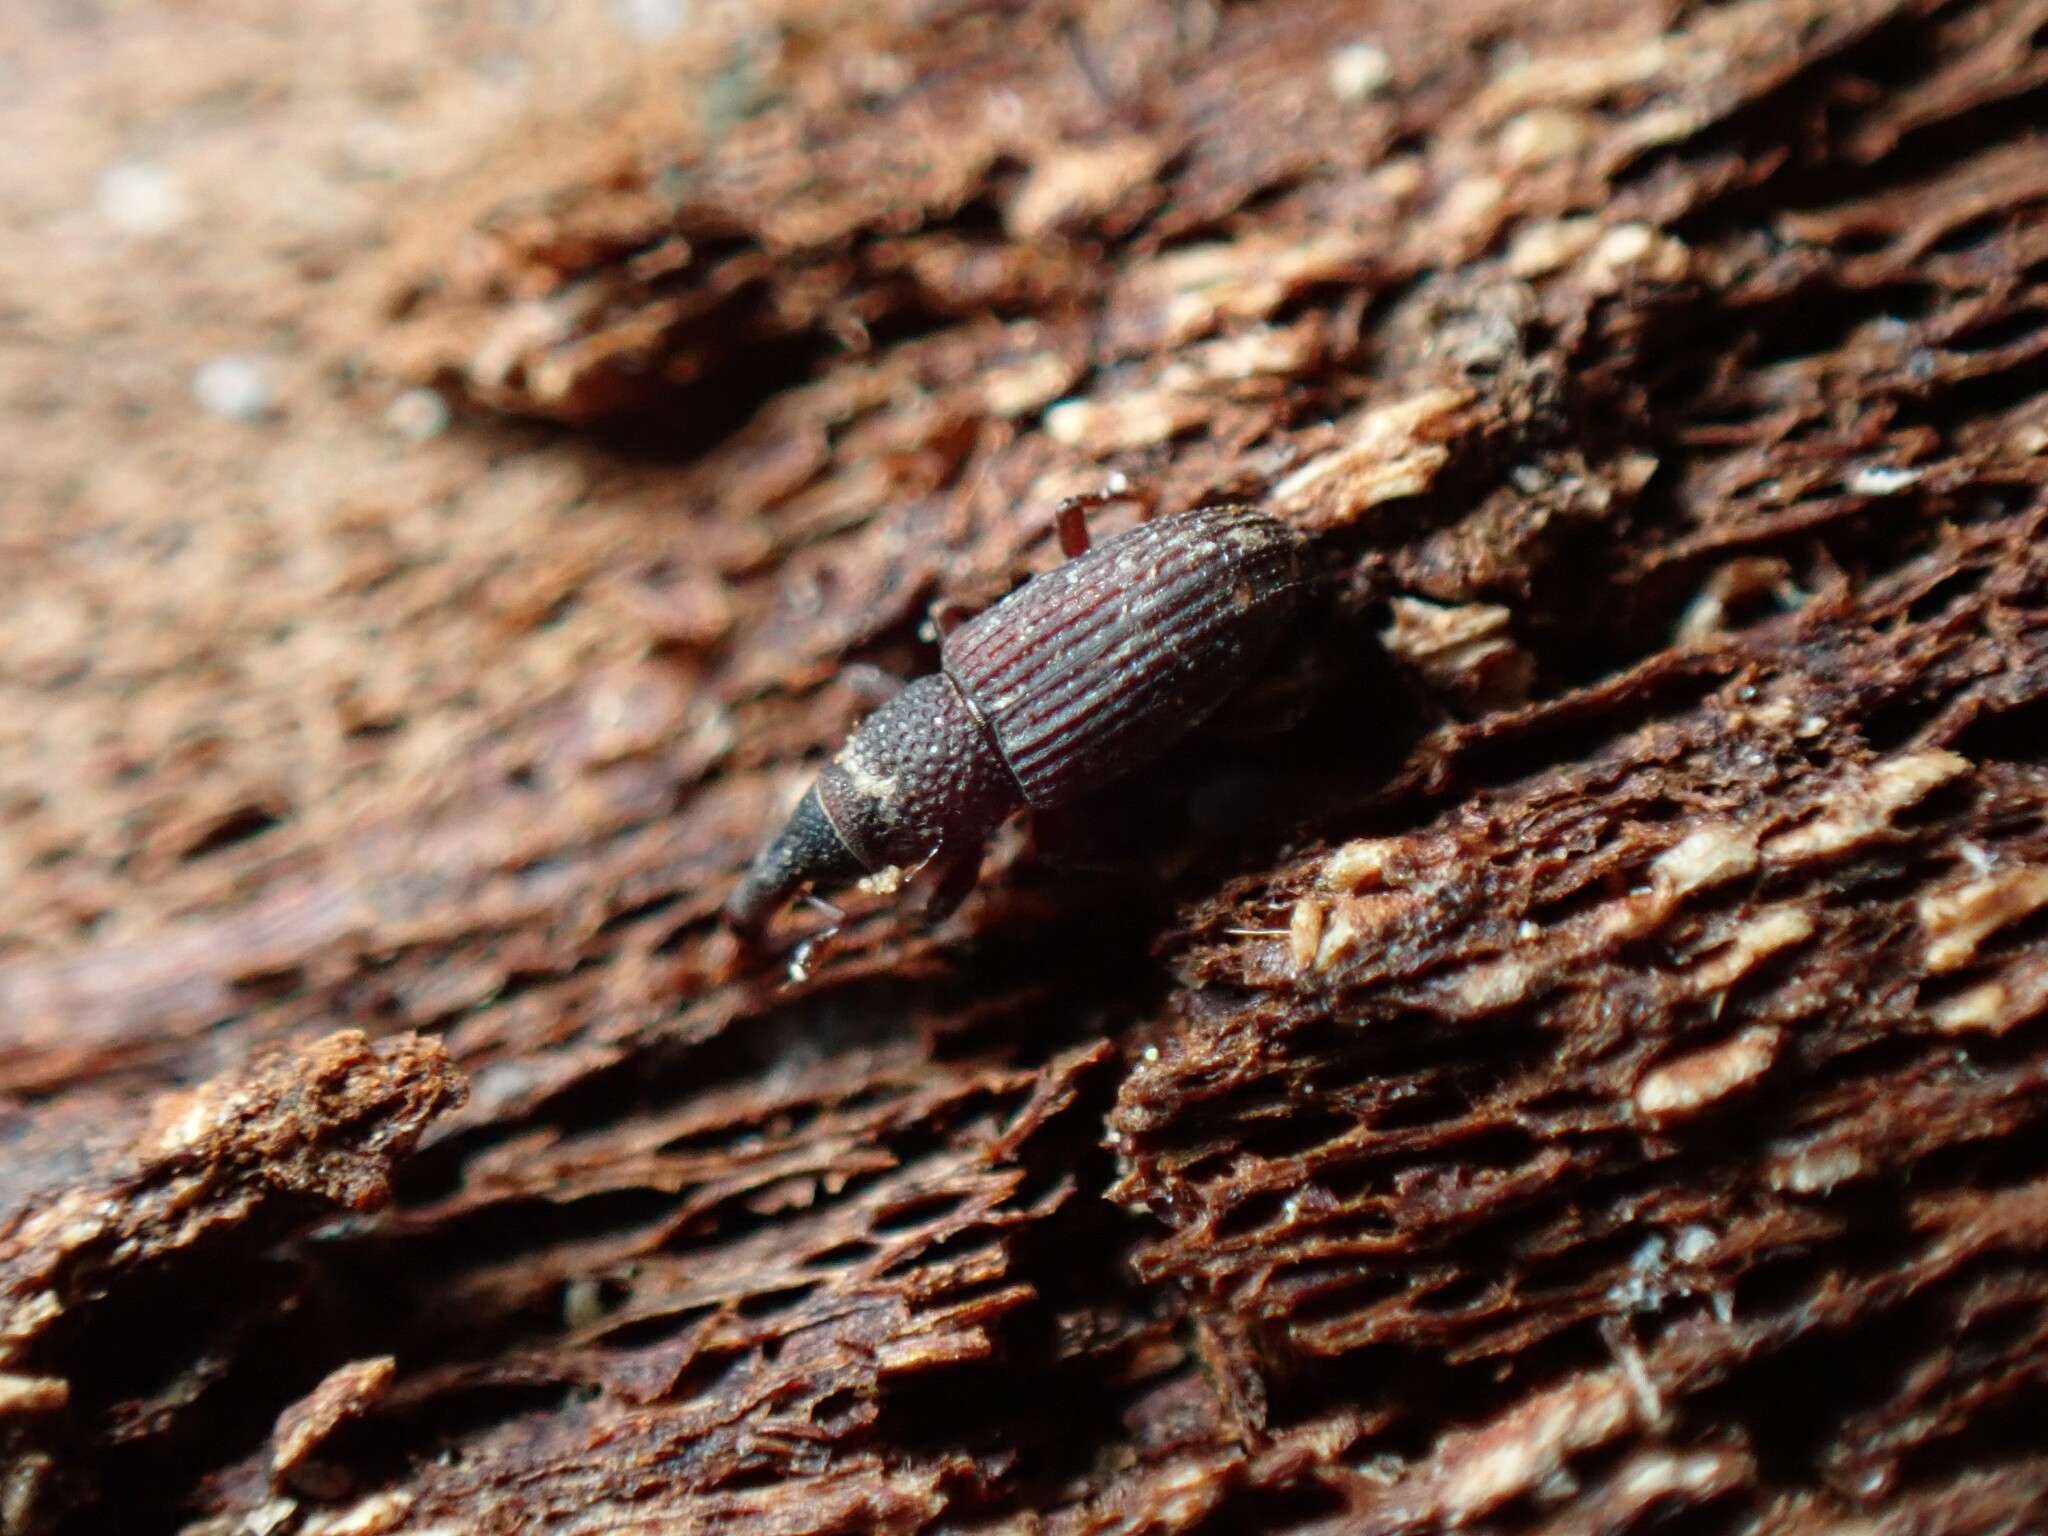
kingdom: Animalia
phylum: Arthropoda
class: Insecta
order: Coleoptera
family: Dryophthoridae
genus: Dryophthorus
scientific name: Dryophthorus americanus
